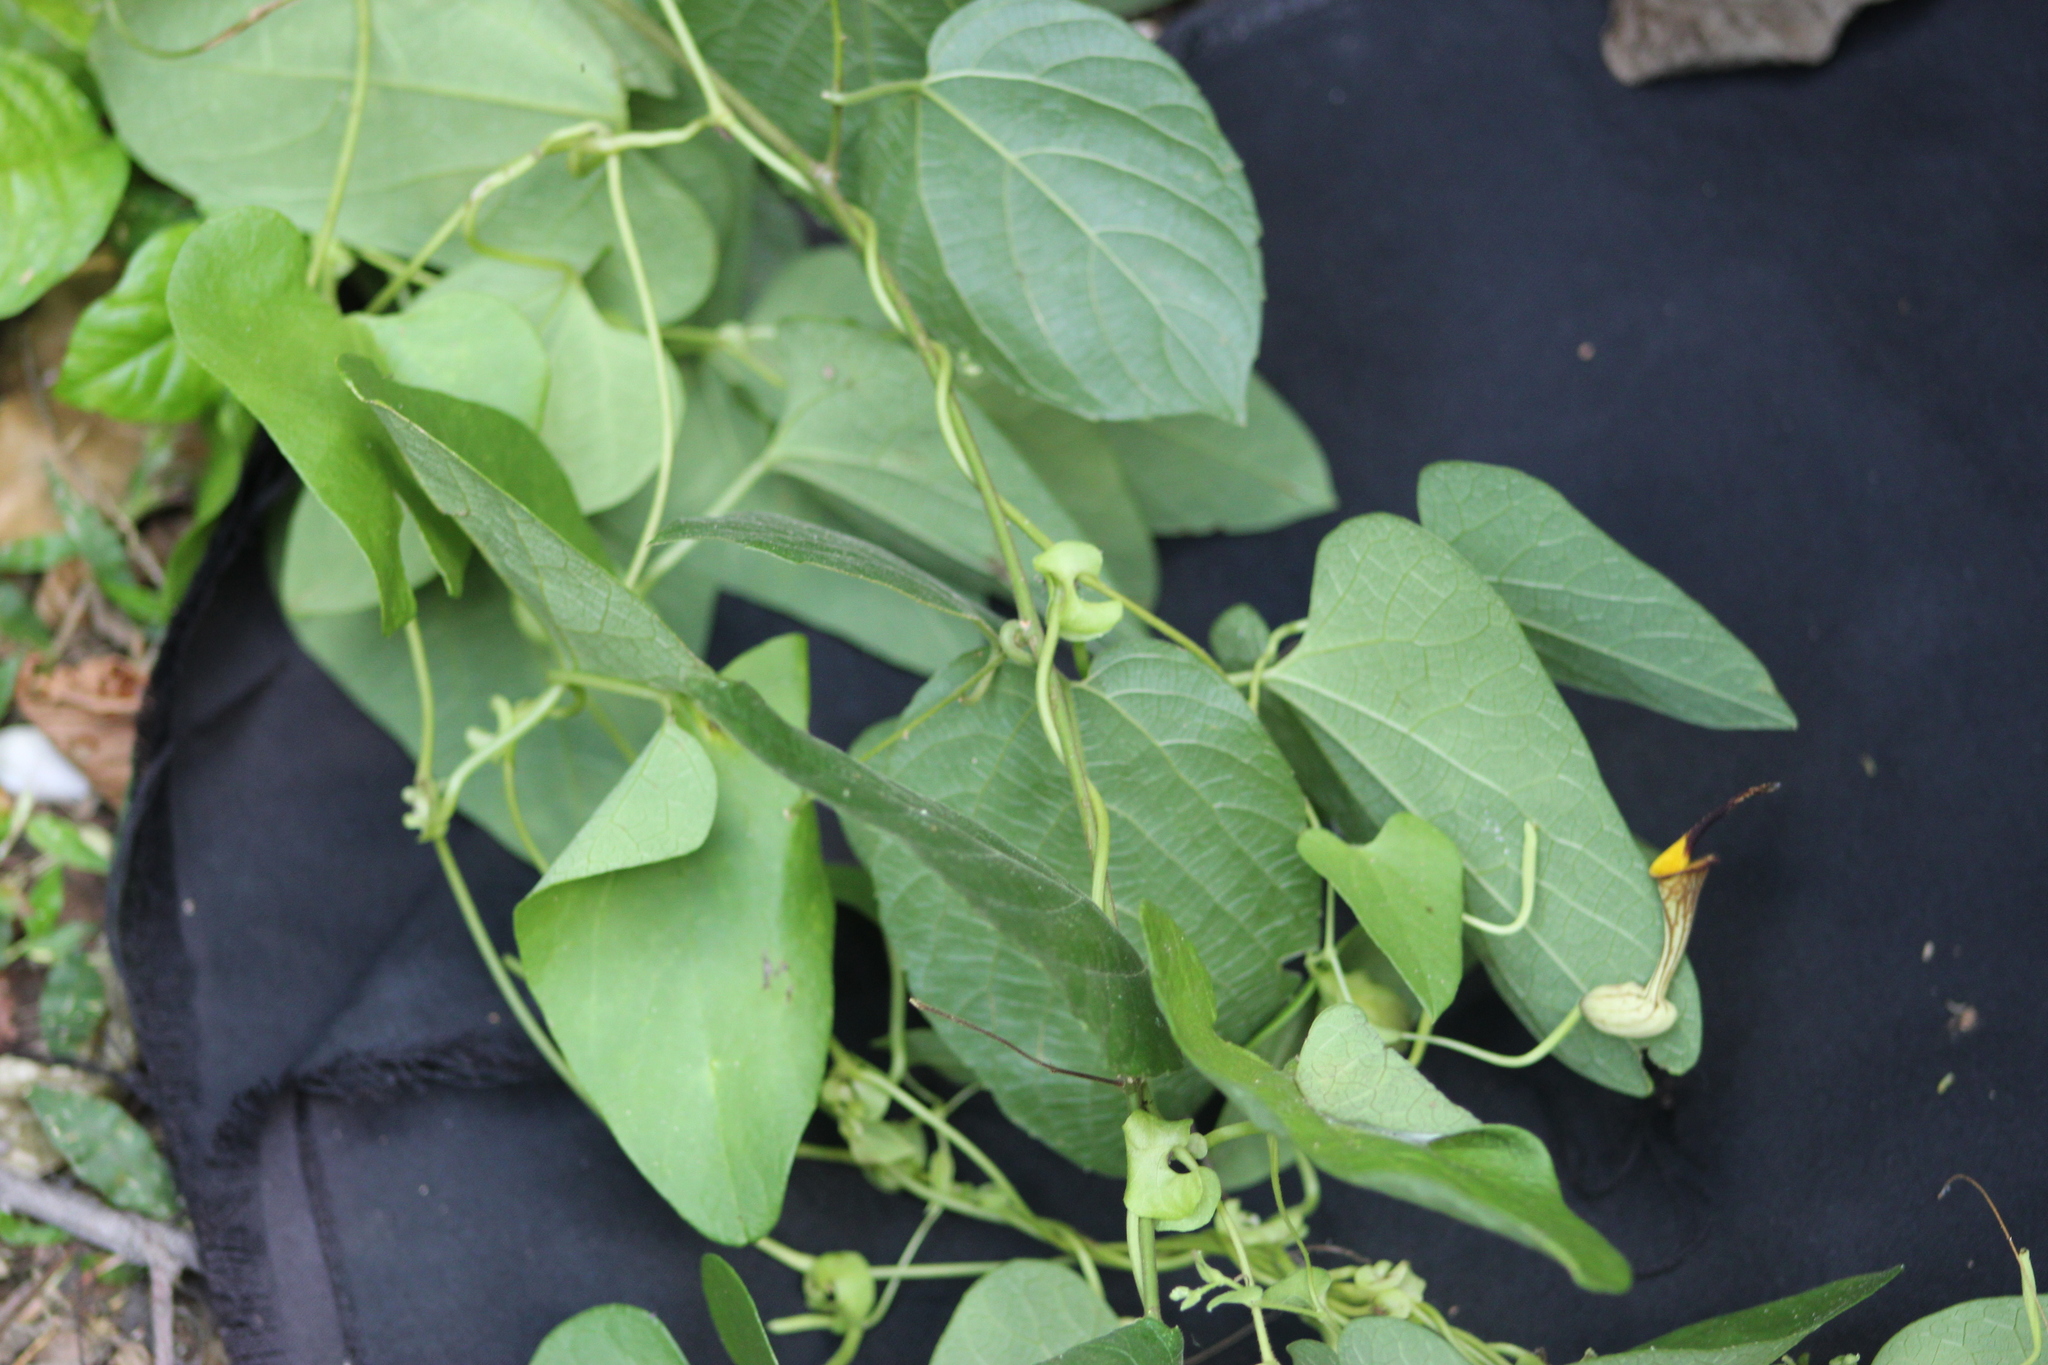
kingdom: Plantae
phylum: Tracheophyta
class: Magnoliopsida
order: Piperales
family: Aristolochiaceae
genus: Aristolochia
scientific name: Aristolochia anguicida
